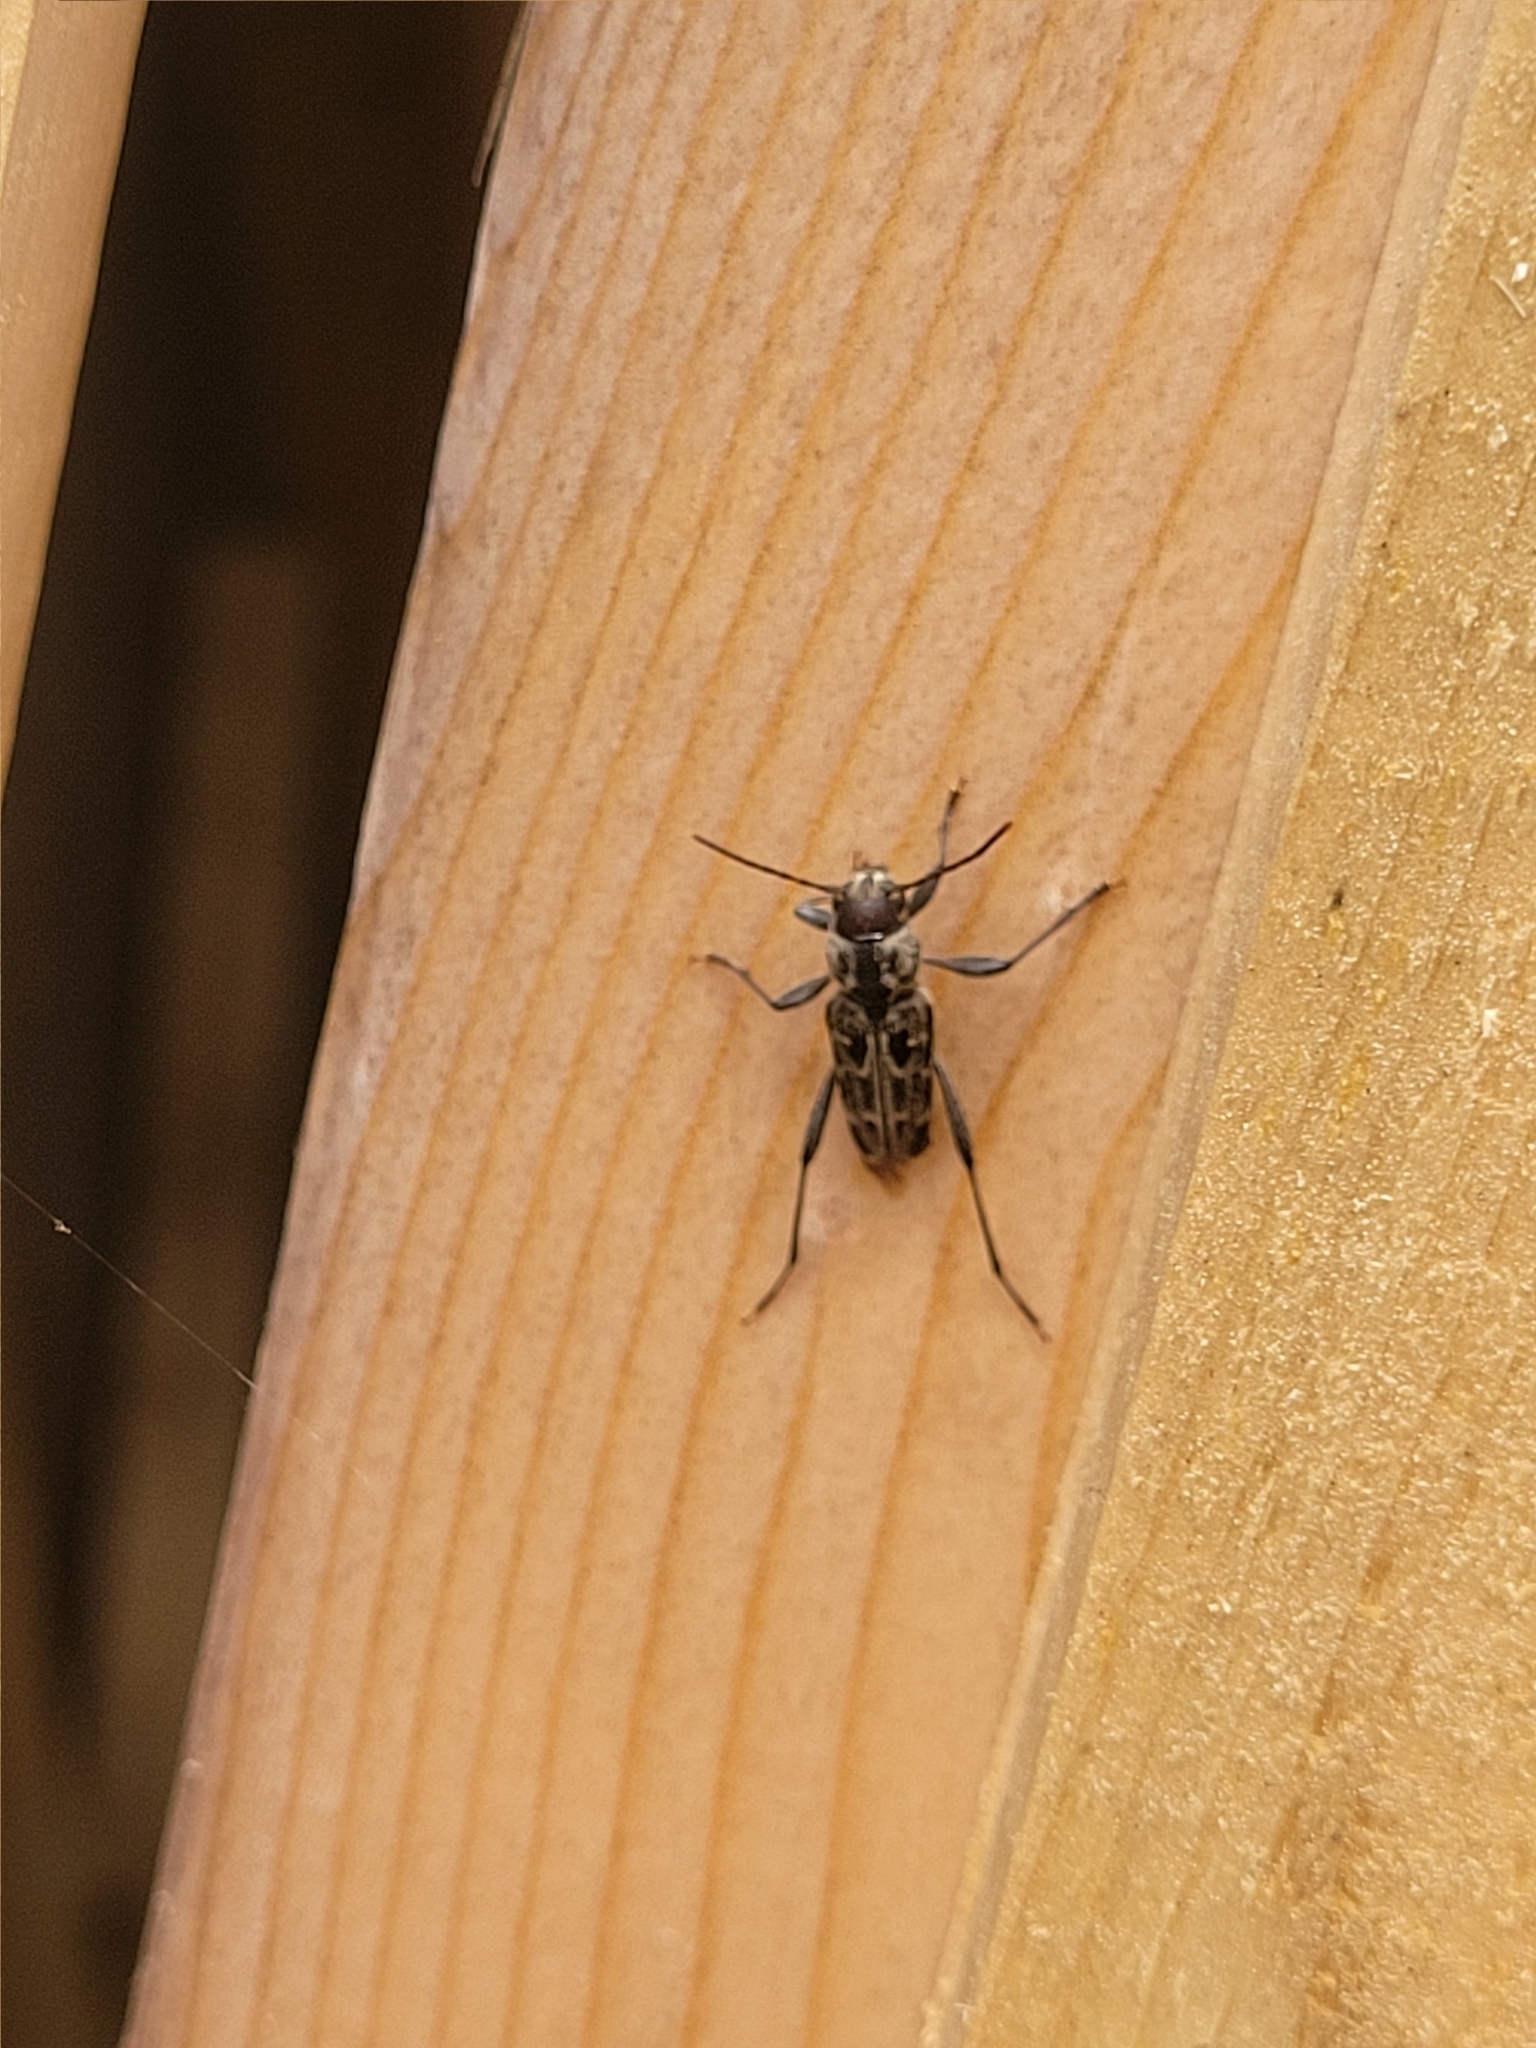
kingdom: Animalia
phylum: Arthropoda
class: Insecta
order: Coleoptera
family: Cerambycidae
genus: Xylotrechus
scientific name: Xylotrechus integer
